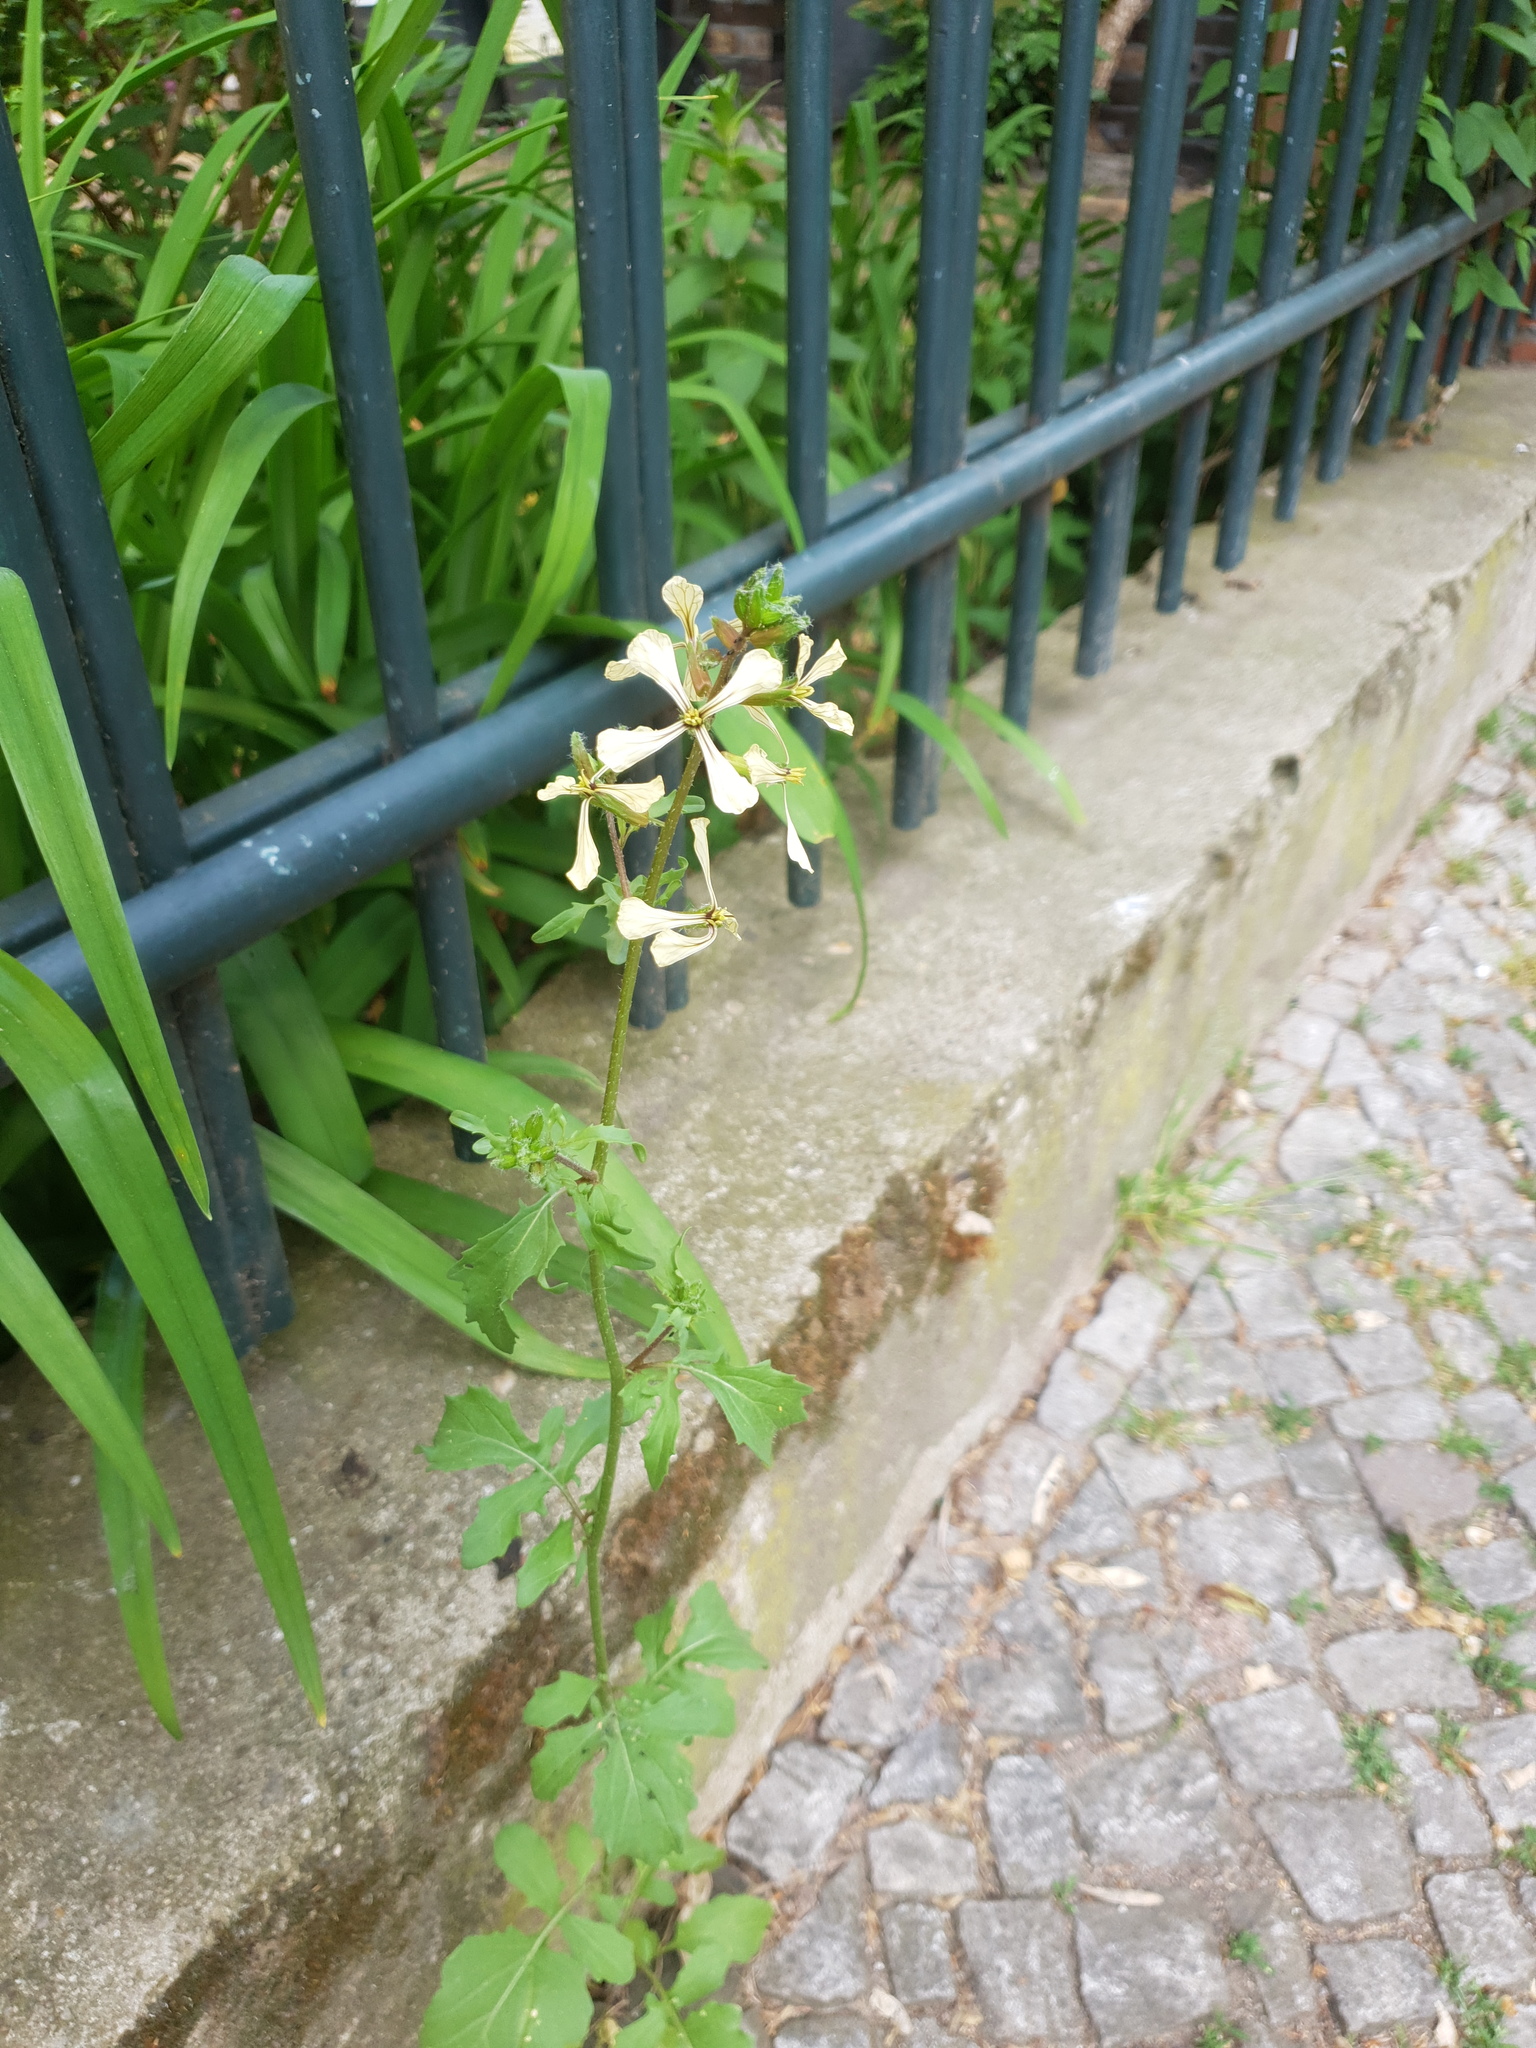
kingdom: Plantae
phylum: Tracheophyta
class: Magnoliopsida
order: Brassicales
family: Brassicaceae
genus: Eruca
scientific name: Eruca vesicaria
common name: Garden rocket
